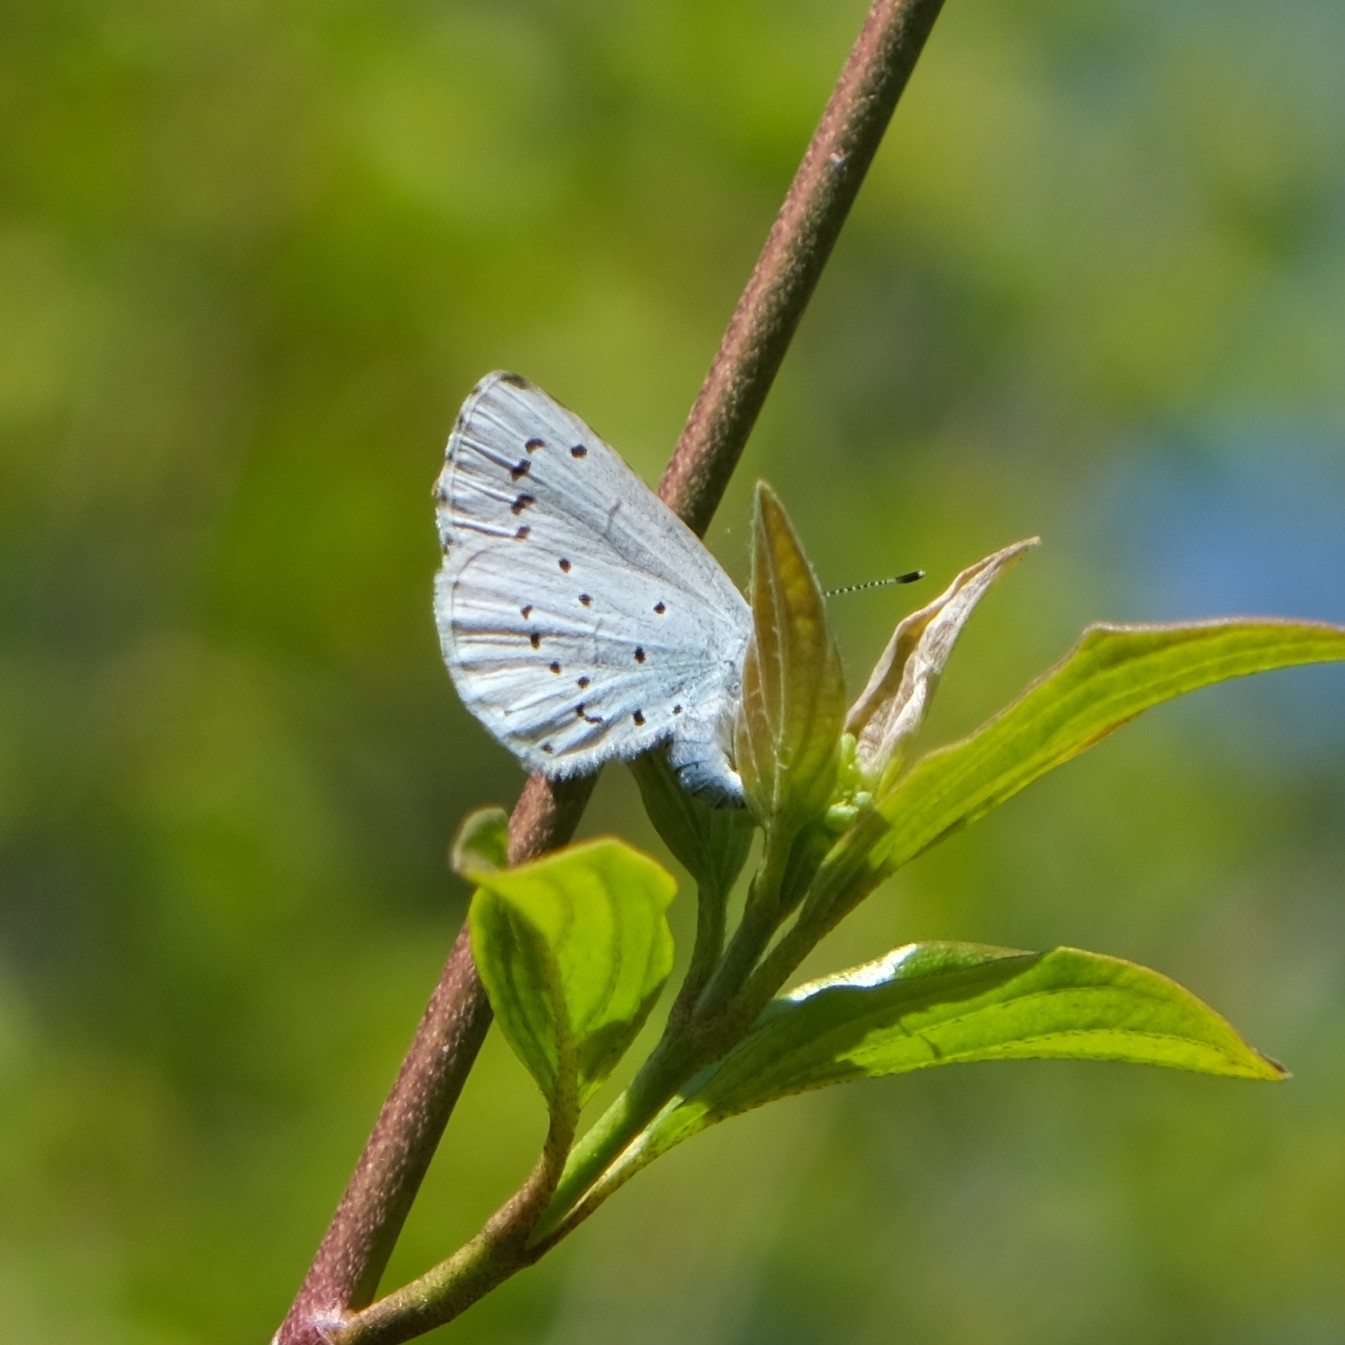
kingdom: Animalia
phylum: Arthropoda
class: Insecta
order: Lepidoptera
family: Lycaenidae
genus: Celastrina
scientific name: Celastrina argiolus
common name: Holly blue
